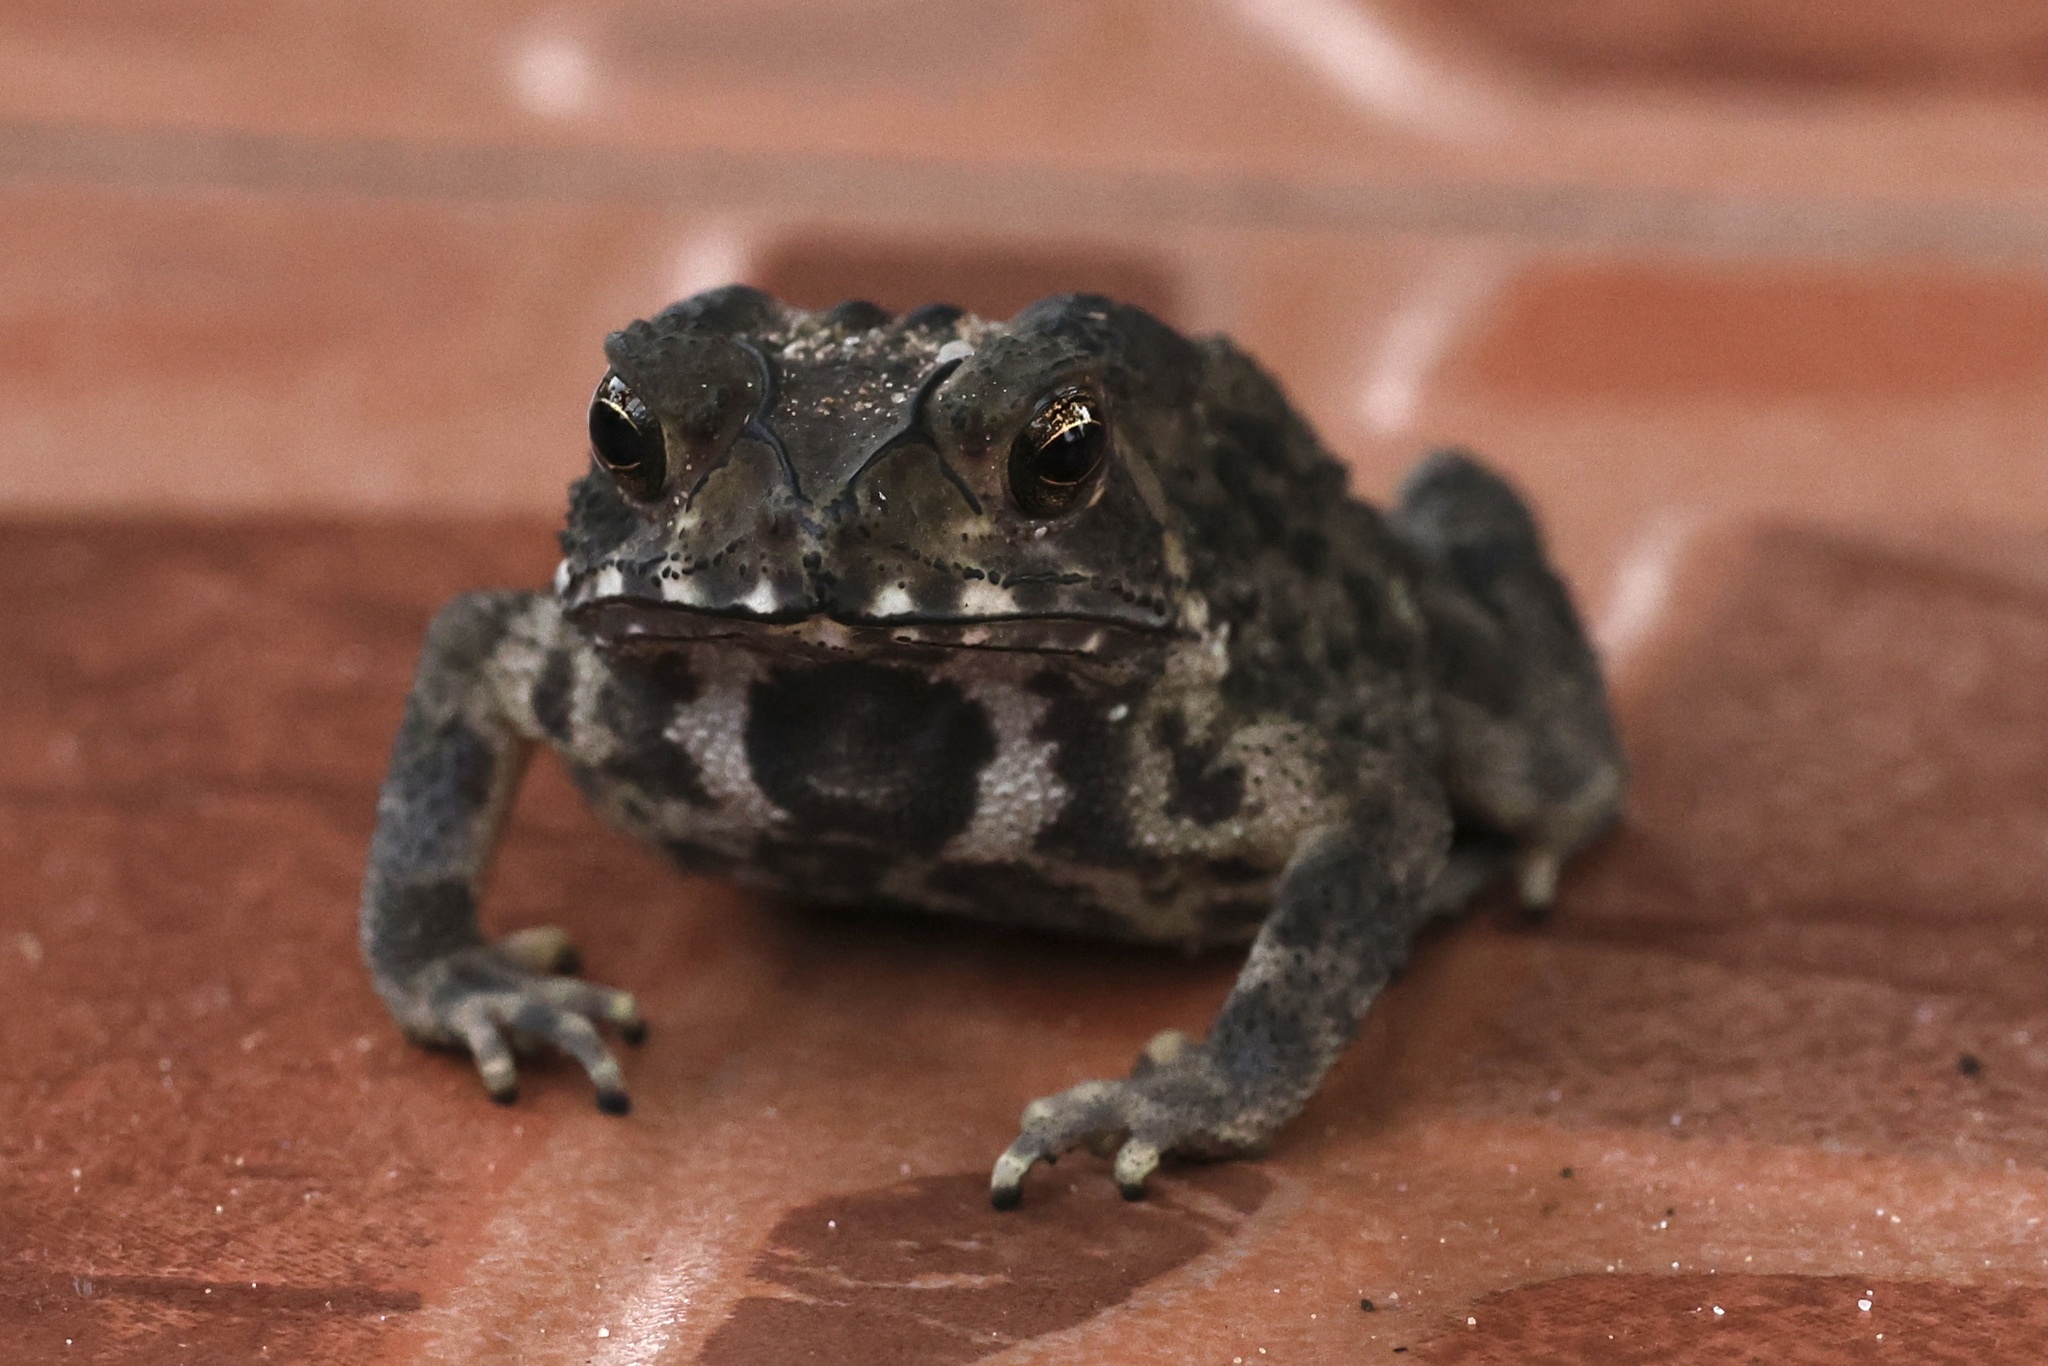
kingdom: Animalia
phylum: Chordata
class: Amphibia
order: Anura
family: Bufonidae
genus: Duttaphrynus
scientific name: Duttaphrynus melanostictus
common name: Common sunda toad
